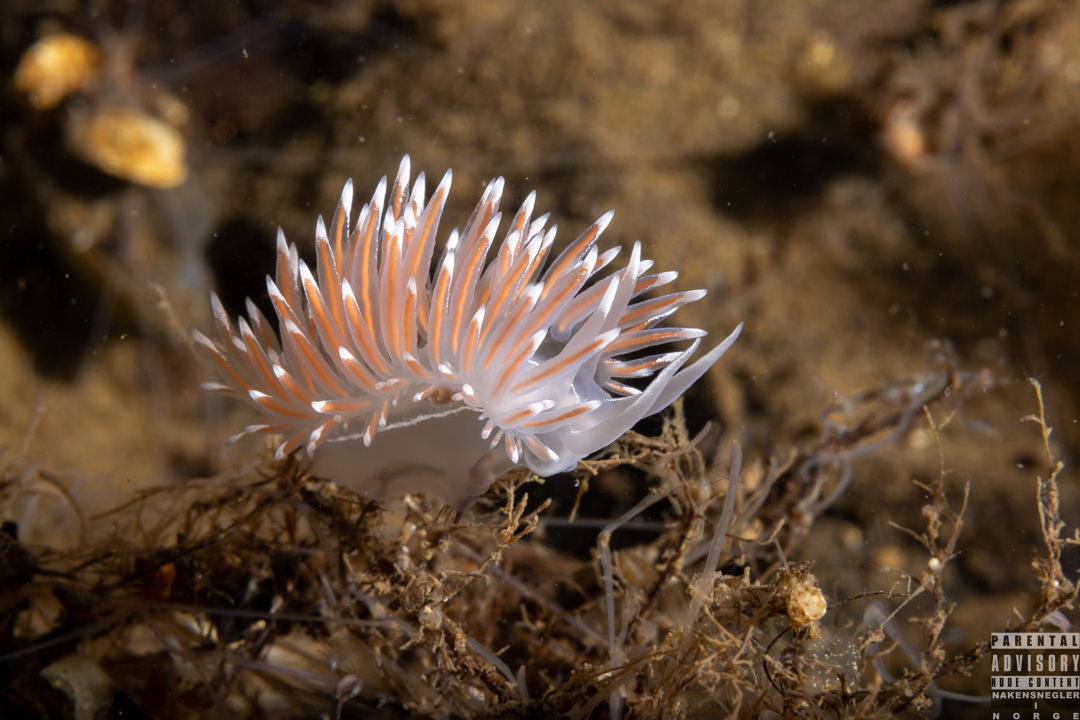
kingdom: Animalia
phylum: Mollusca
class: Gastropoda
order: Nudibranchia
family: Coryphellidae
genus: Coryphella
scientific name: Coryphella lineata
